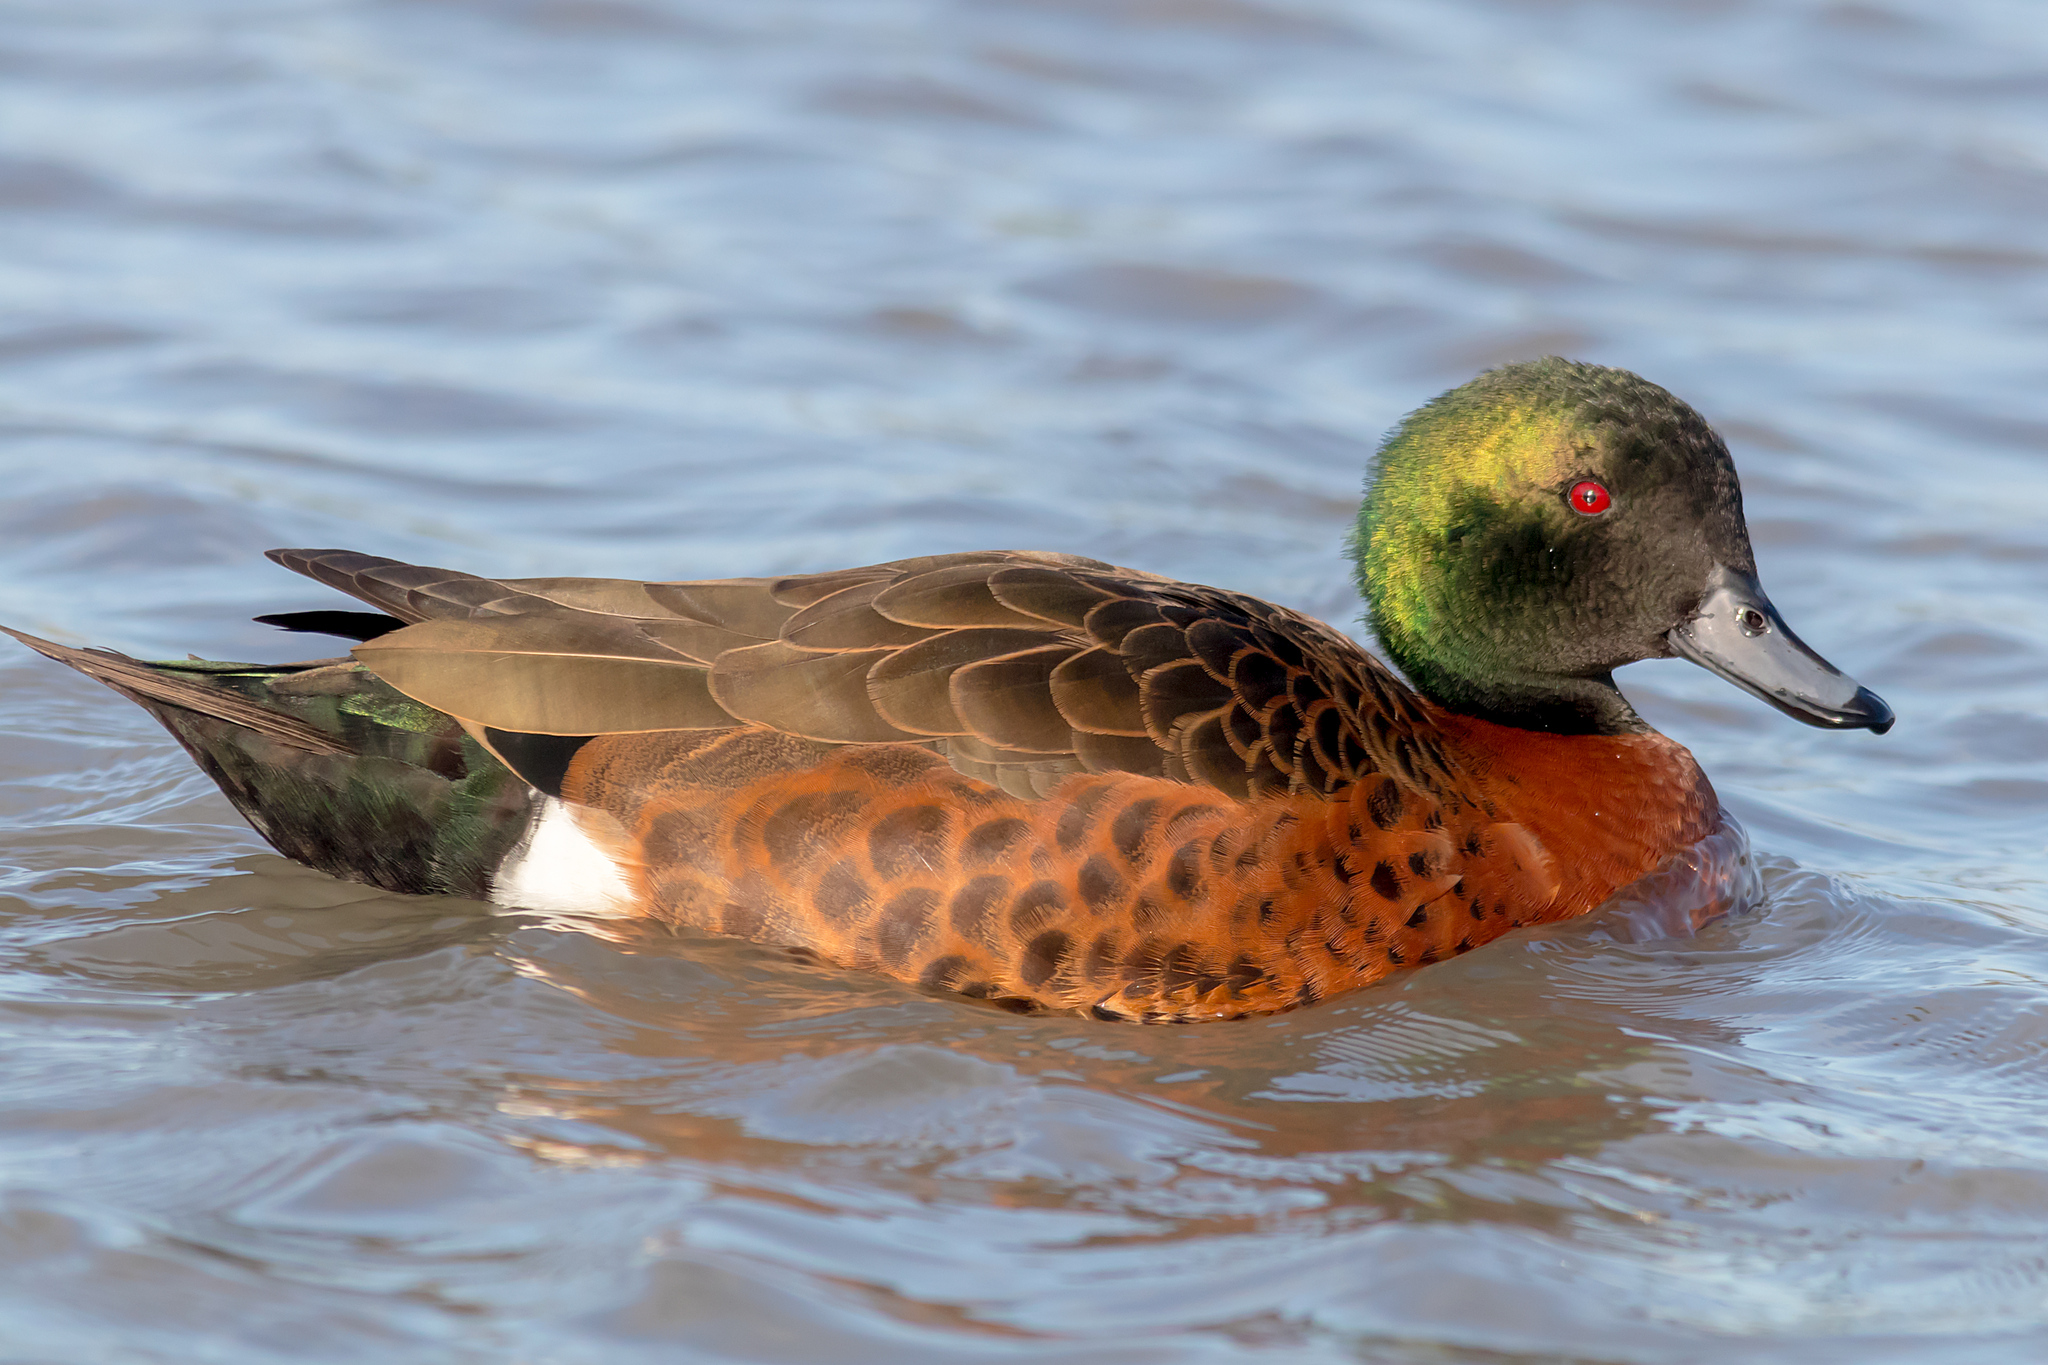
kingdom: Animalia
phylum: Chordata
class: Aves
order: Anseriformes
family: Anatidae
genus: Anas
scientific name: Anas castanea
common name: Chestnut teal
